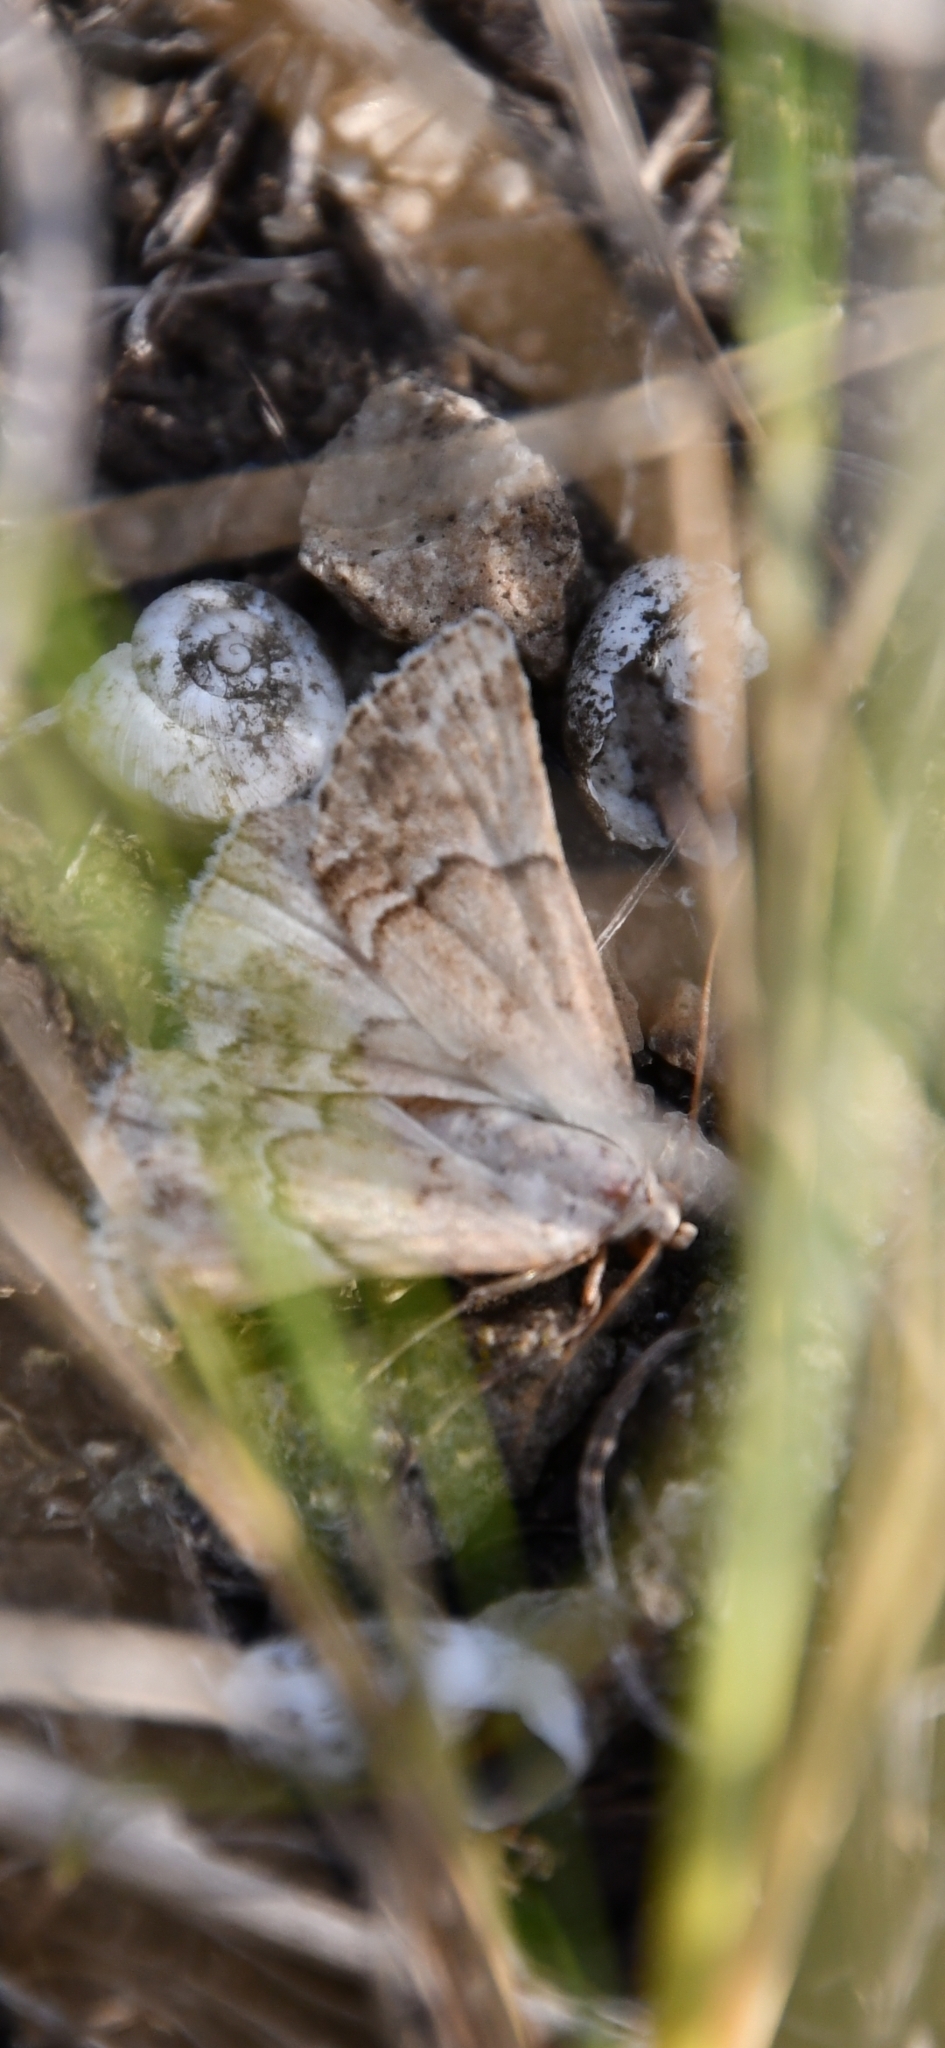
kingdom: Animalia
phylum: Arthropoda
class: Insecta
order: Lepidoptera
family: Noctuidae
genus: Eublemma
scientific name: Eublemma arcuinna
